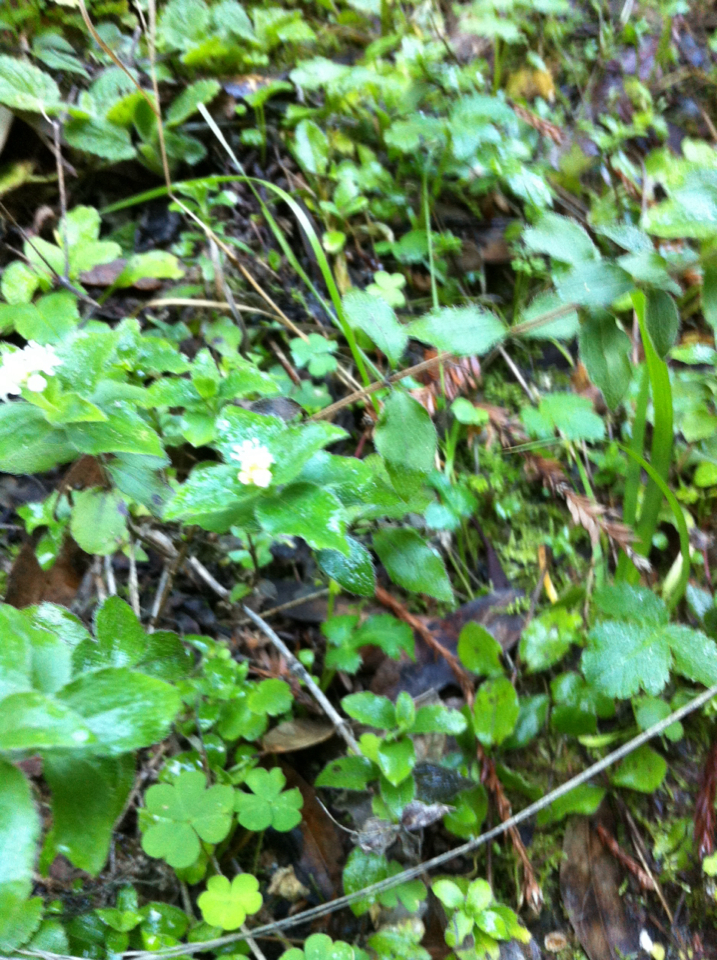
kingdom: Plantae
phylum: Tracheophyta
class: Magnoliopsida
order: Cornales
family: Hydrangeaceae
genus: Whipplea
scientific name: Whipplea modesta
